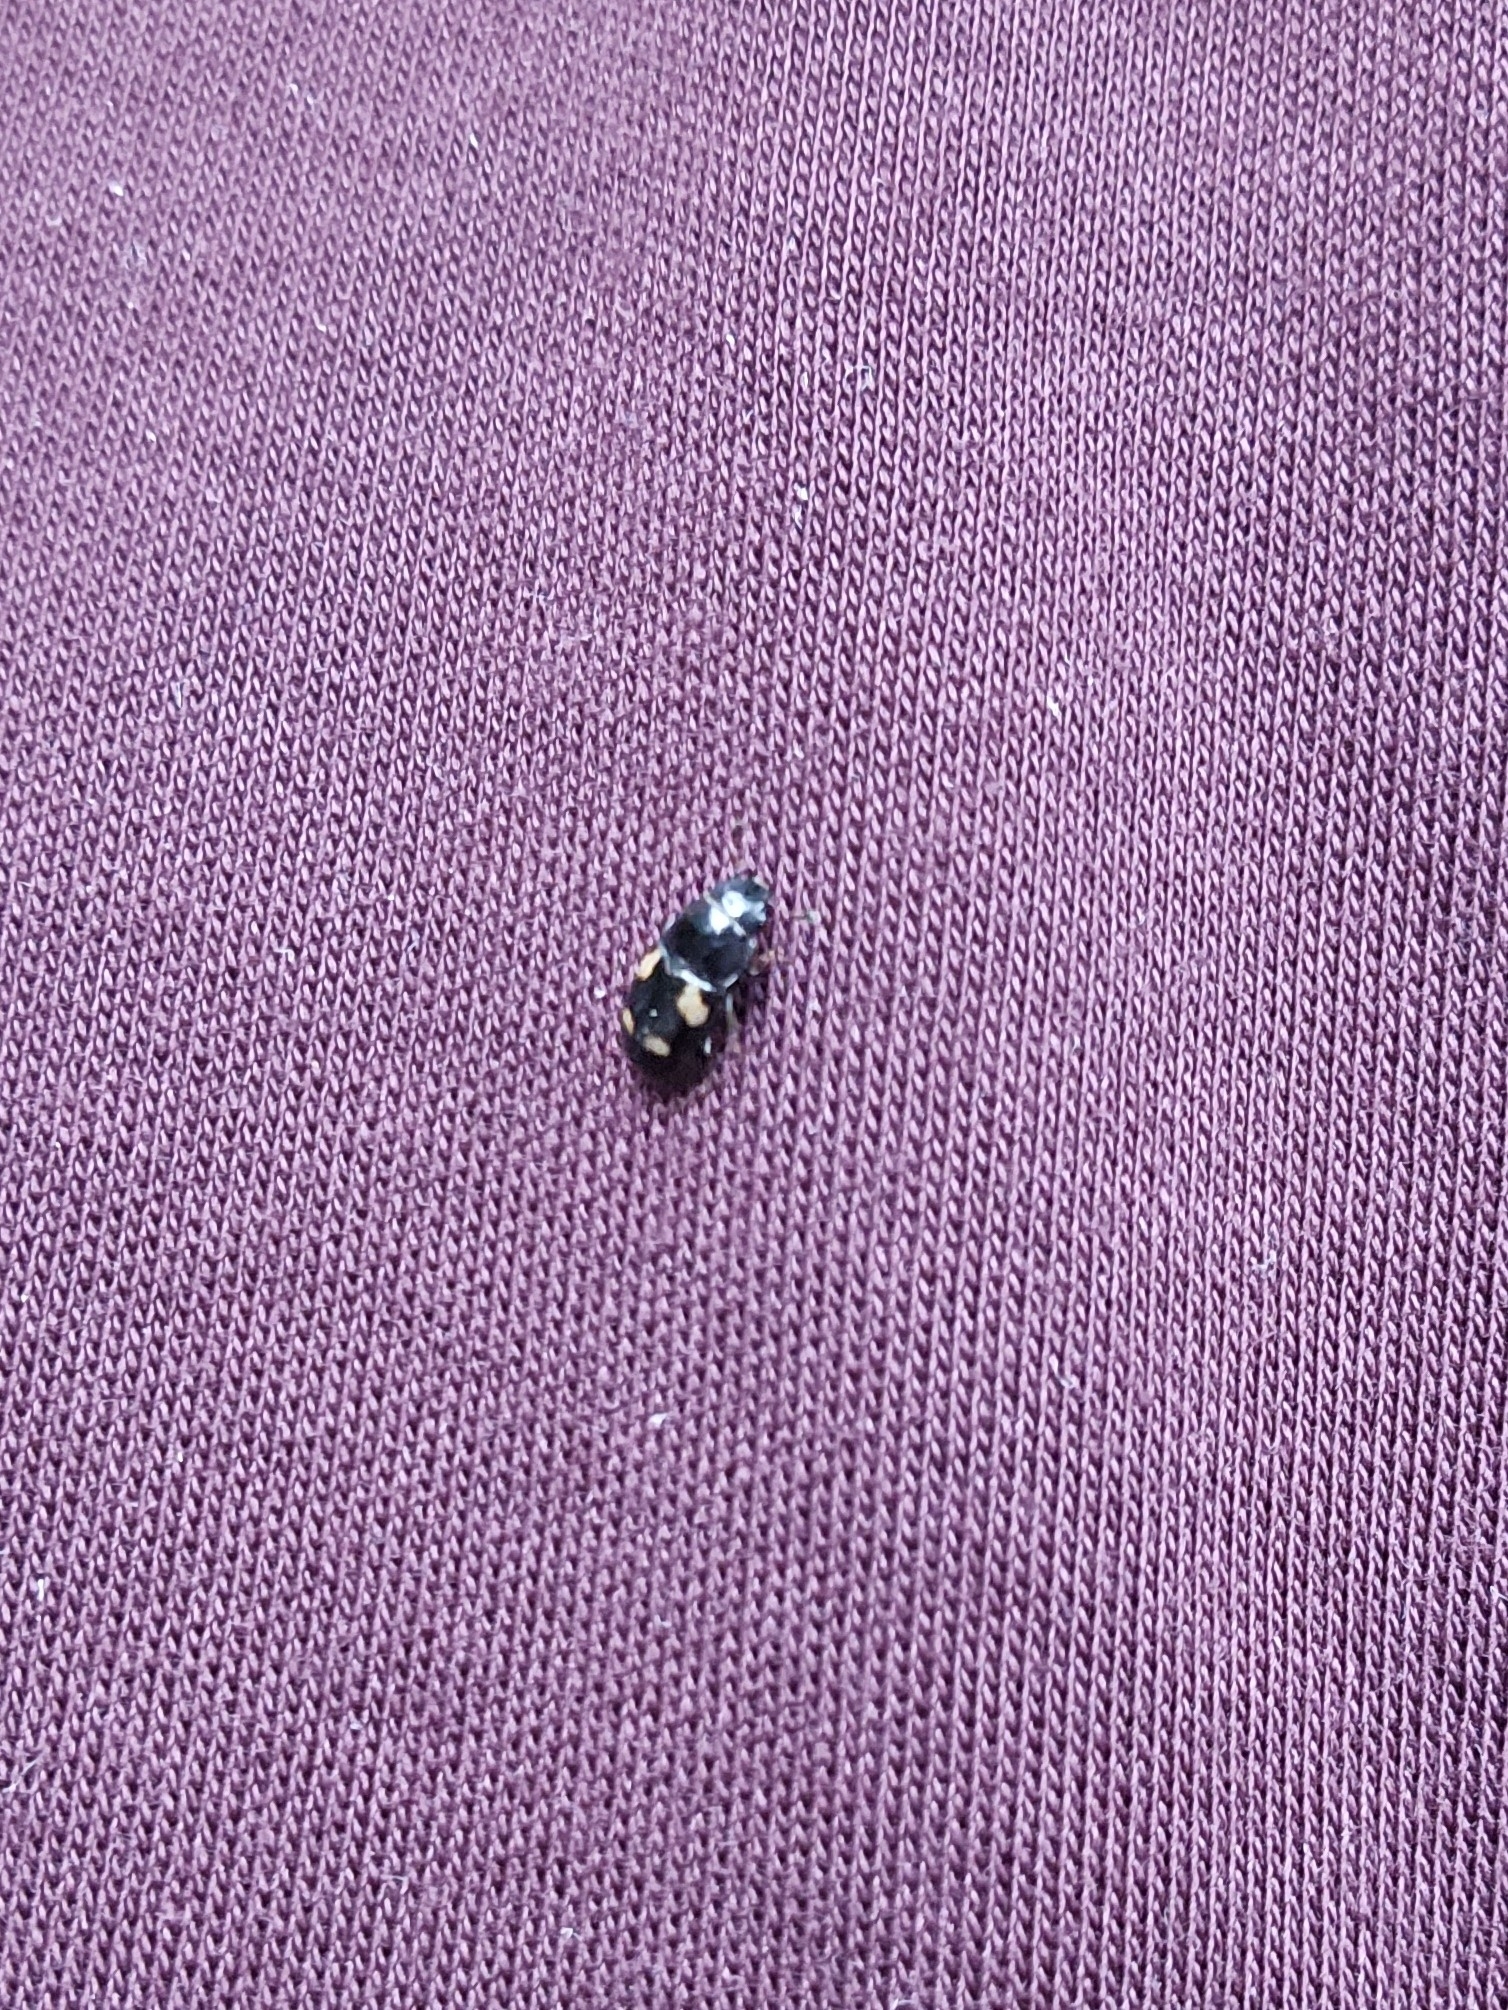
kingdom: Animalia
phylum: Arthropoda
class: Insecta
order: Coleoptera
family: Nitidulidae
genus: Glischrochilus
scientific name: Glischrochilus quadrisignatus
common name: Picnic beetle
